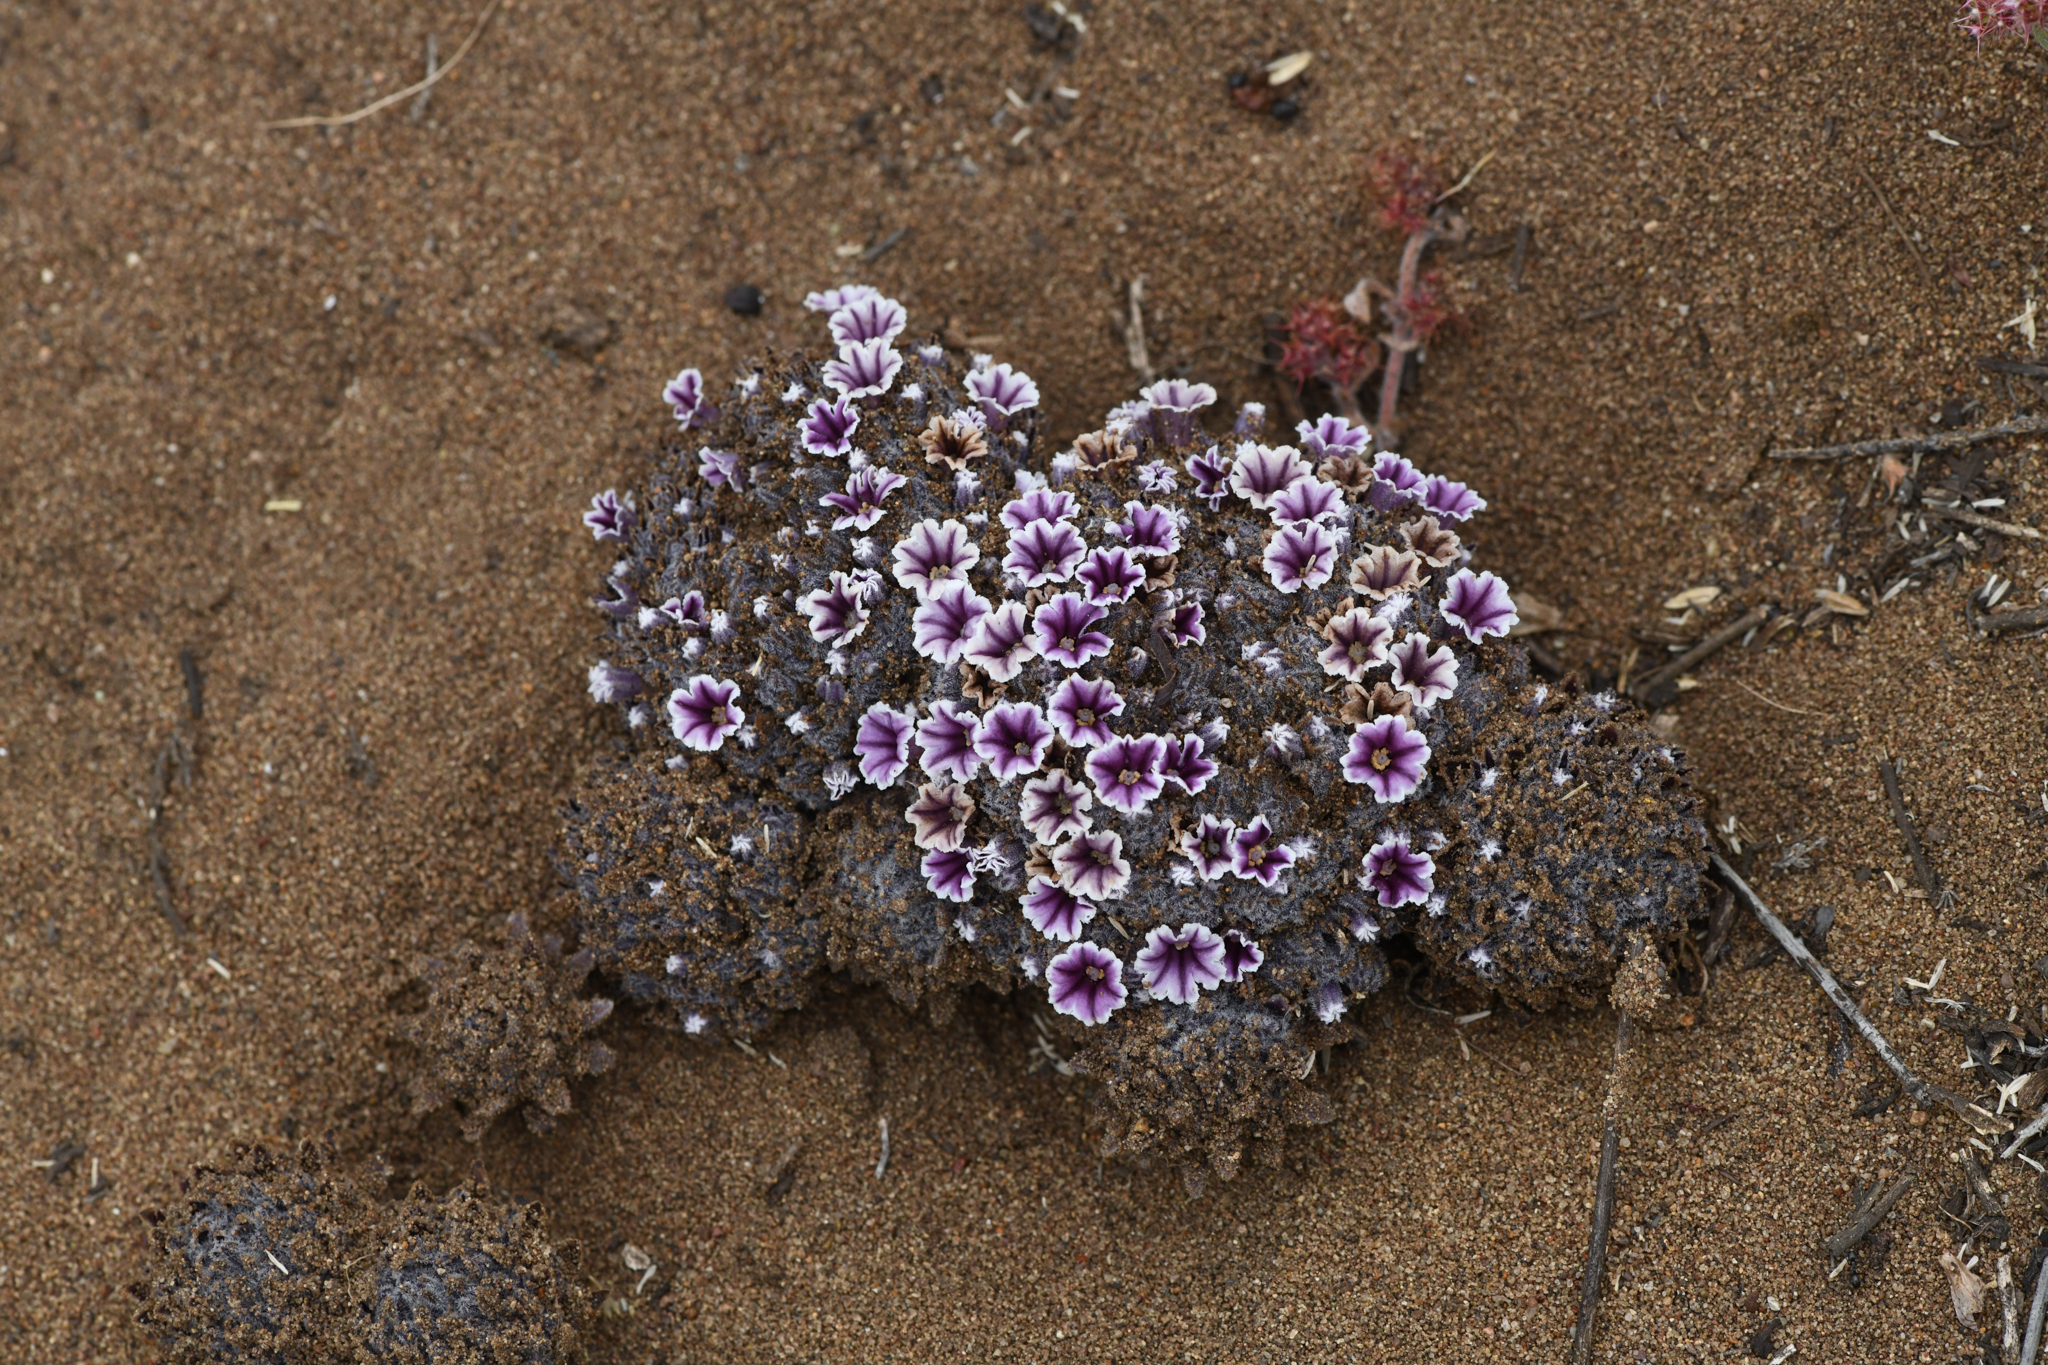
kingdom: Plantae
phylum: Tracheophyta
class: Magnoliopsida
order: Boraginales
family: Lennoaceae
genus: Pholisma
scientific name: Pholisma arenarium
